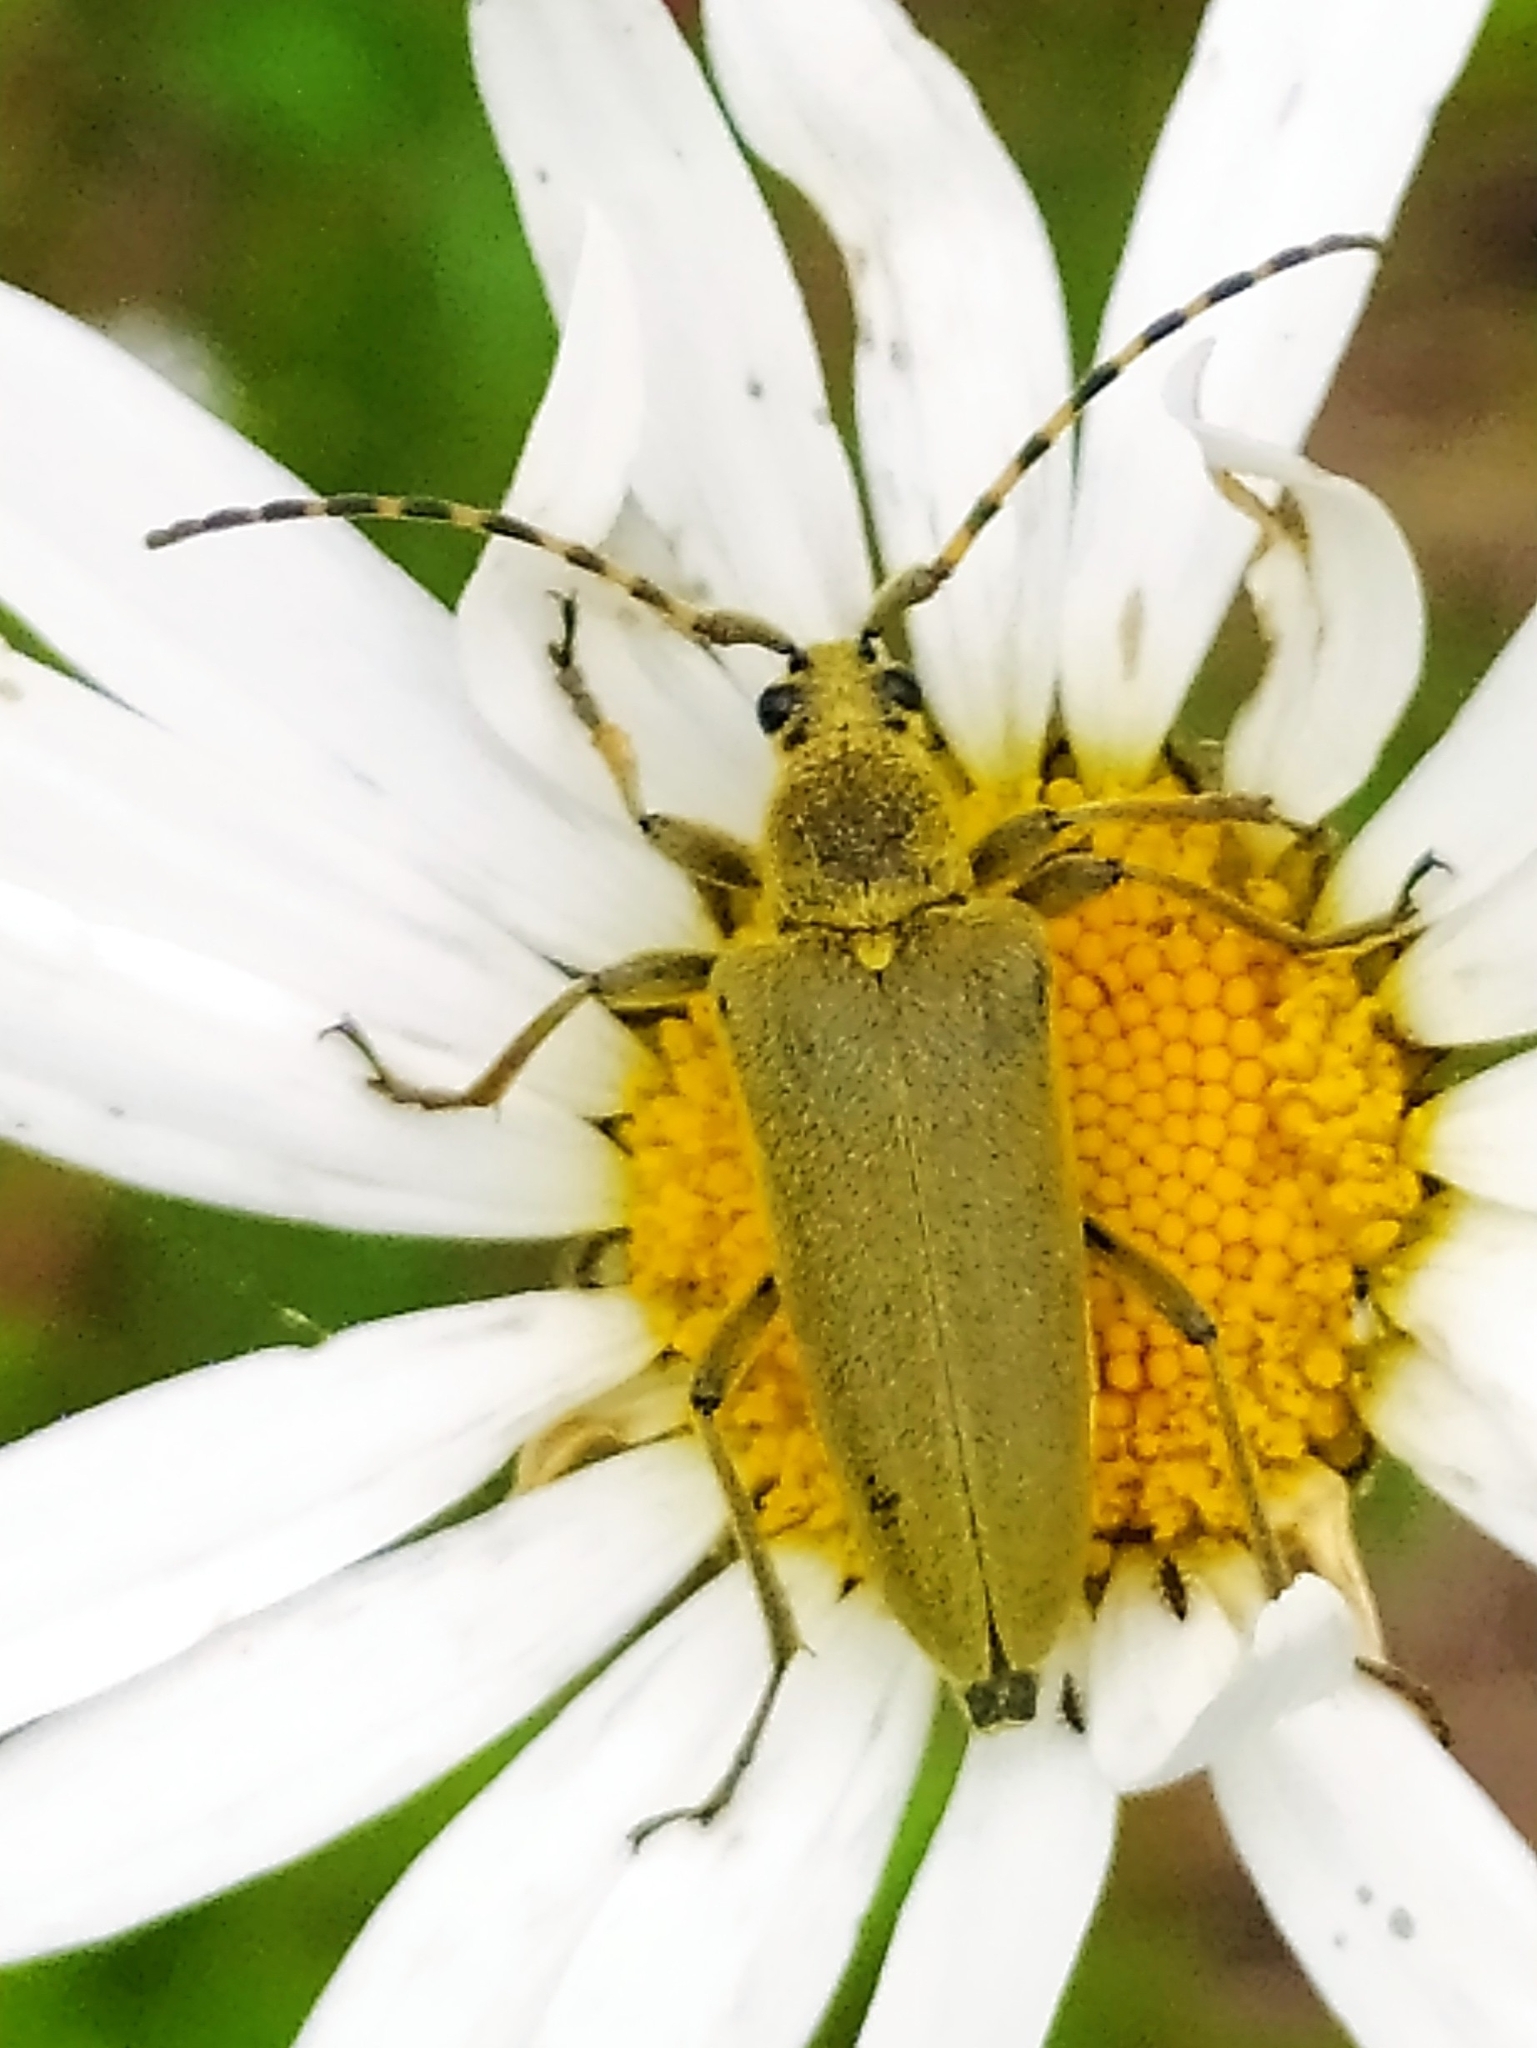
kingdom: Animalia
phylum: Arthropoda
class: Insecta
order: Coleoptera
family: Cerambycidae
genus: Lepturobosca
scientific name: Lepturobosca virens
